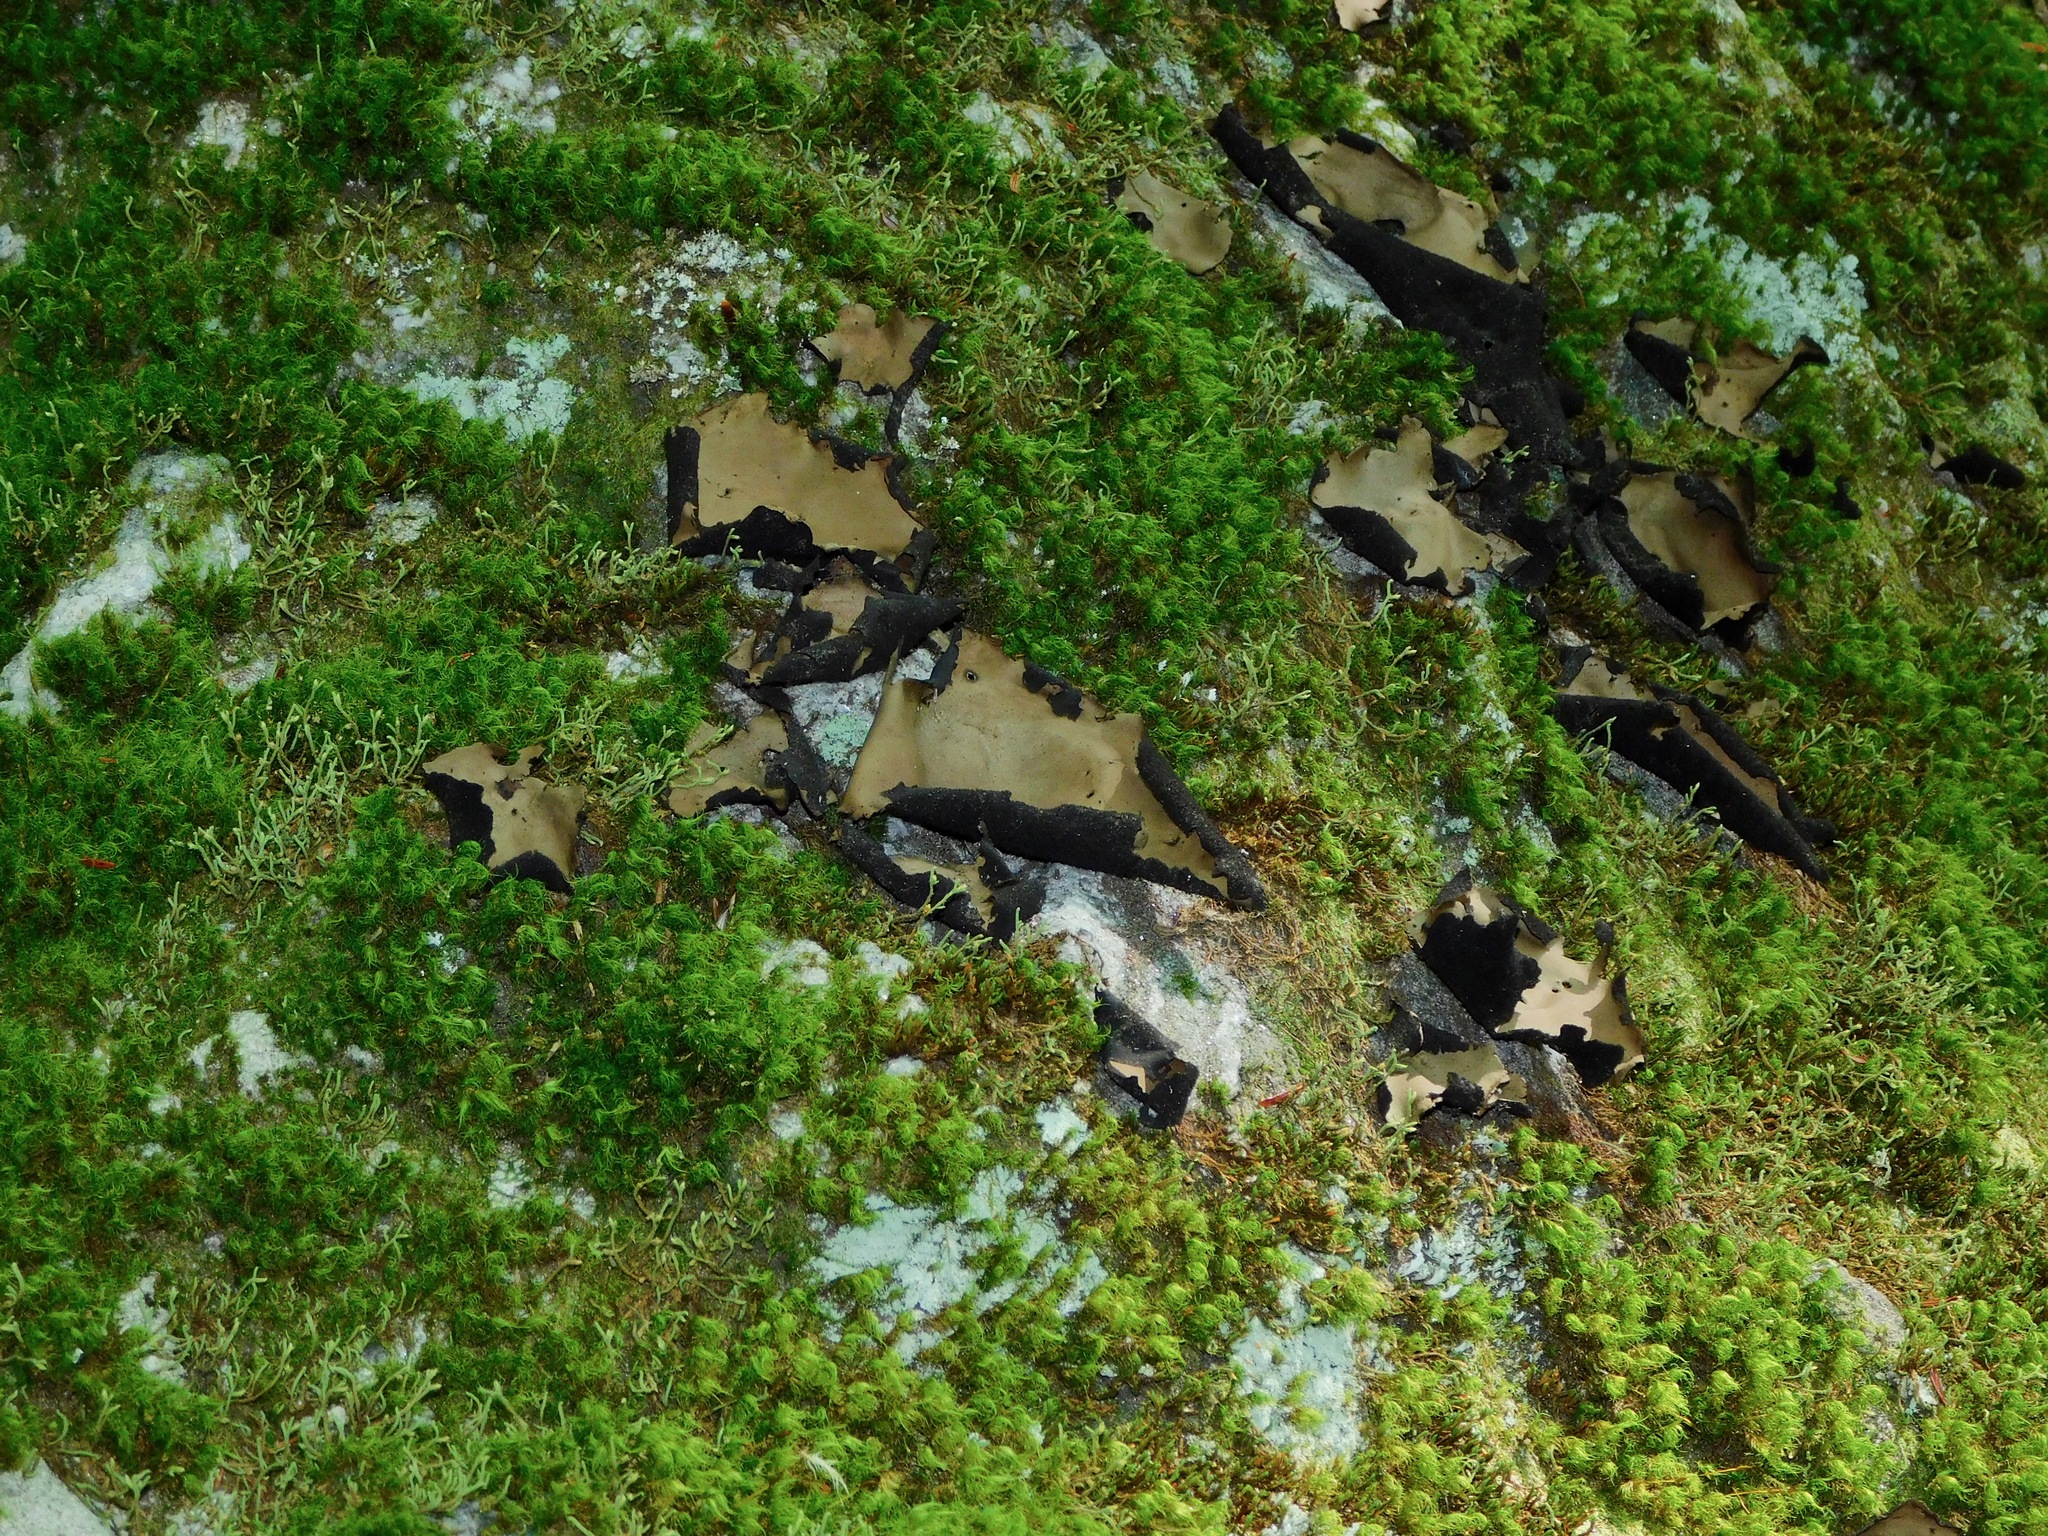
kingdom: Fungi
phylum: Ascomycota
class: Lecanoromycetes
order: Umbilicariales
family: Umbilicariaceae
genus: Umbilicaria
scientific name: Umbilicaria mammulata
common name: Smooth rock tripe
